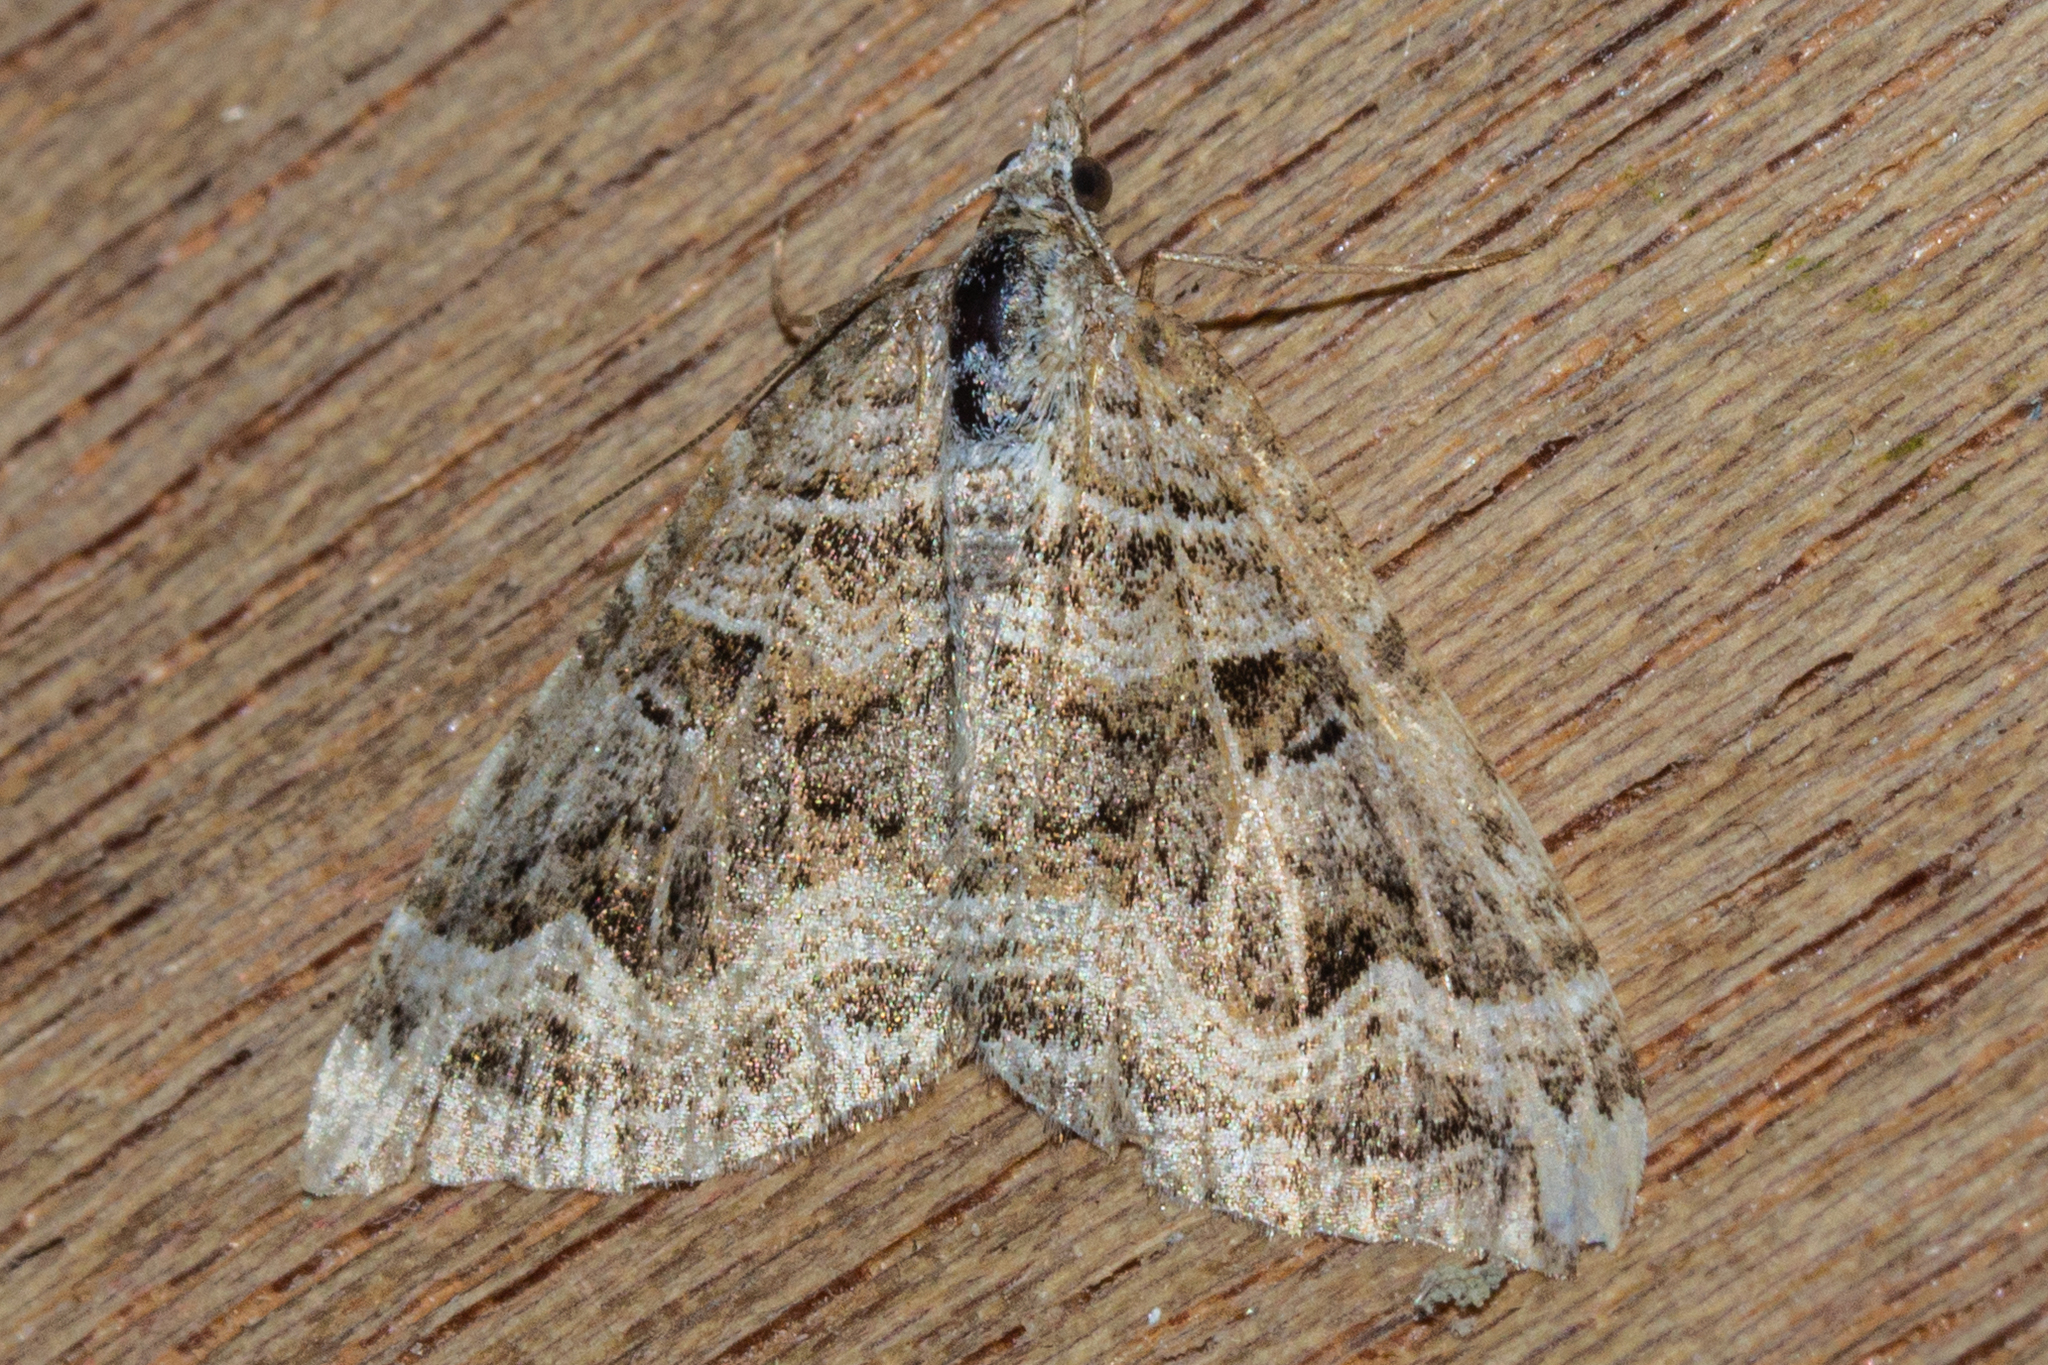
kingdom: Animalia
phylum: Arthropoda
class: Insecta
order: Lepidoptera
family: Geometridae
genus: Xanthorhoe
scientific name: Xanthorhoe semifissata
